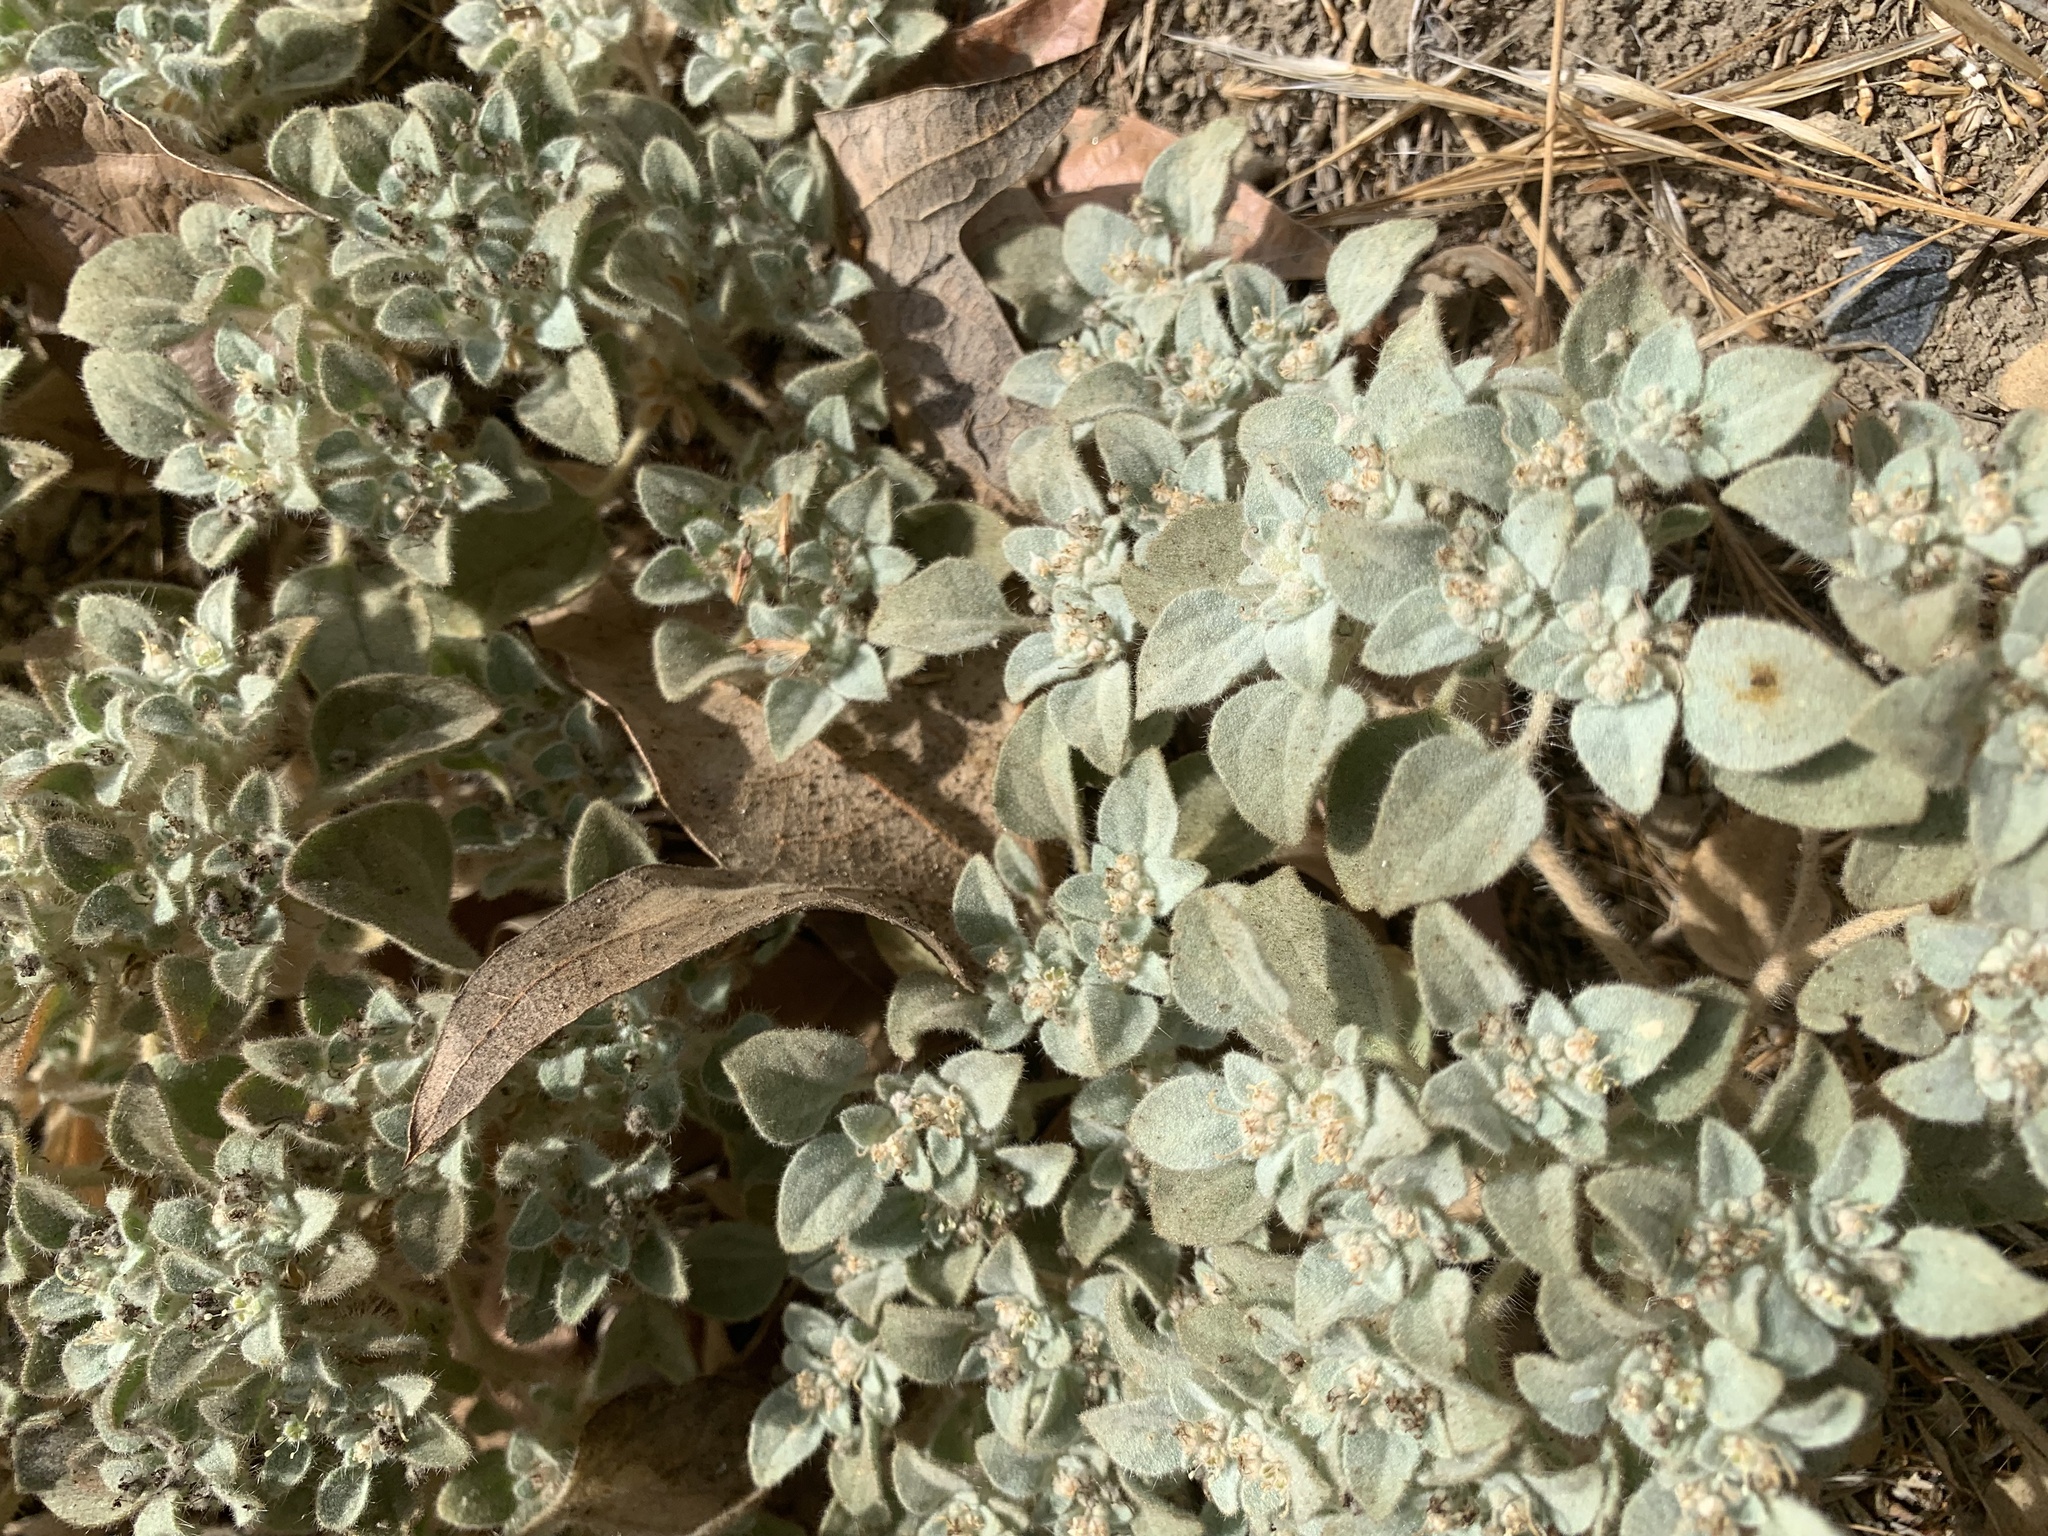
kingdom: Plantae
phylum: Tracheophyta
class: Magnoliopsida
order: Malpighiales
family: Euphorbiaceae
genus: Croton
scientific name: Croton setiger
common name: Dove weed
